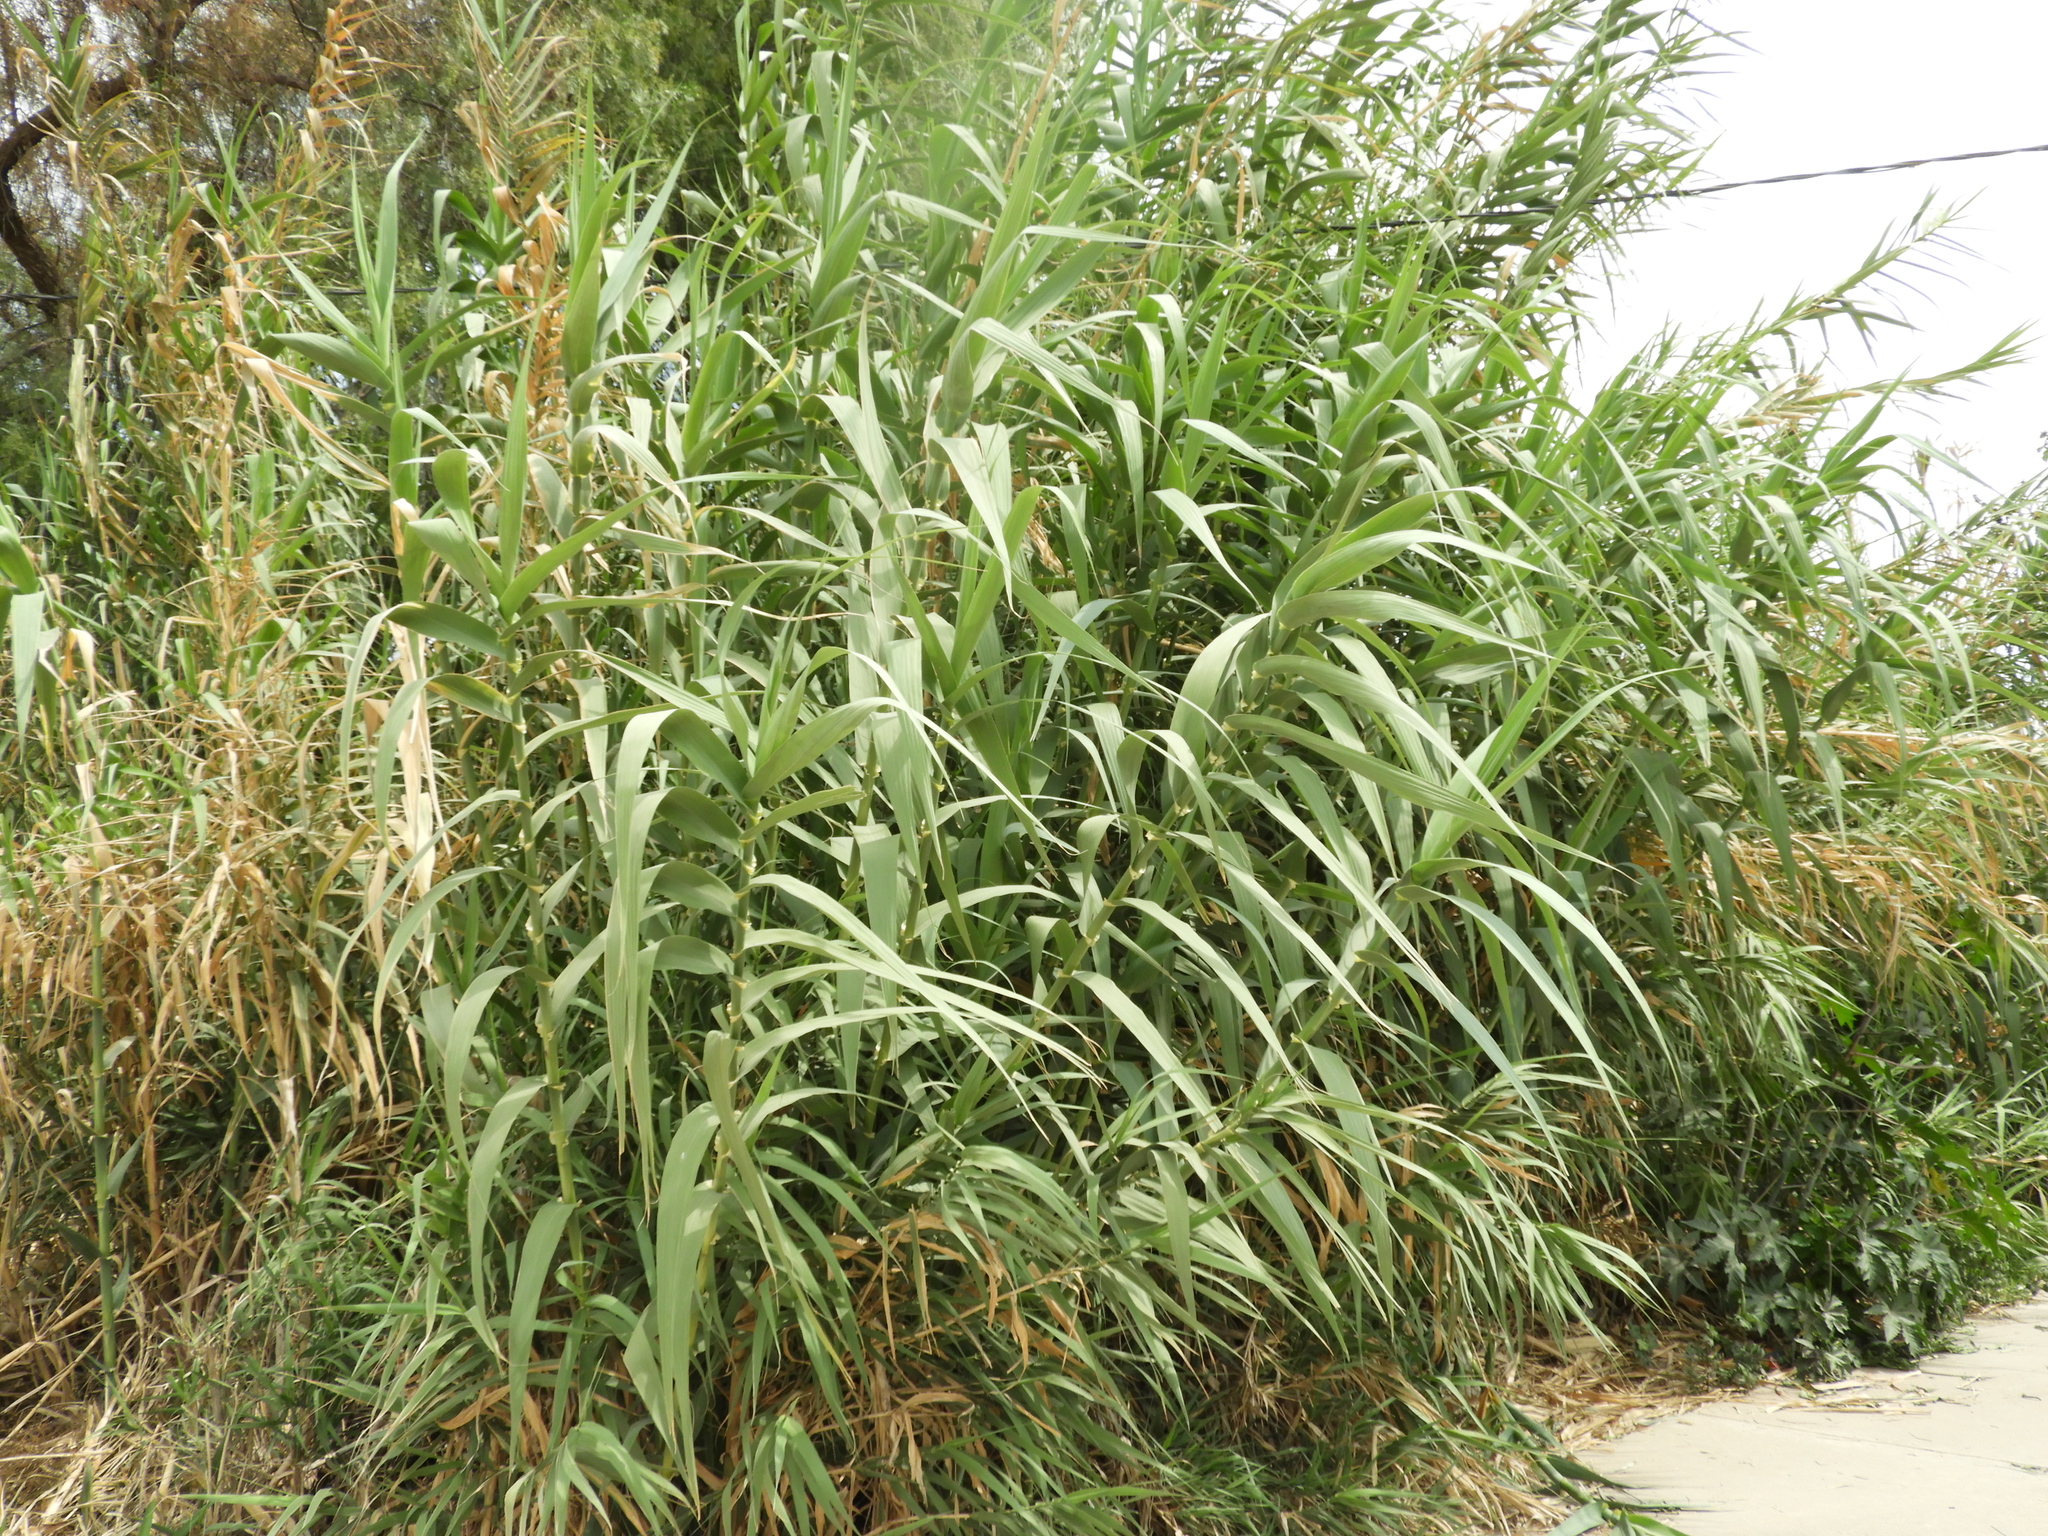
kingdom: Plantae
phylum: Tracheophyta
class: Liliopsida
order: Poales
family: Poaceae
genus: Arundo
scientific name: Arundo donax
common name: Giant reed
